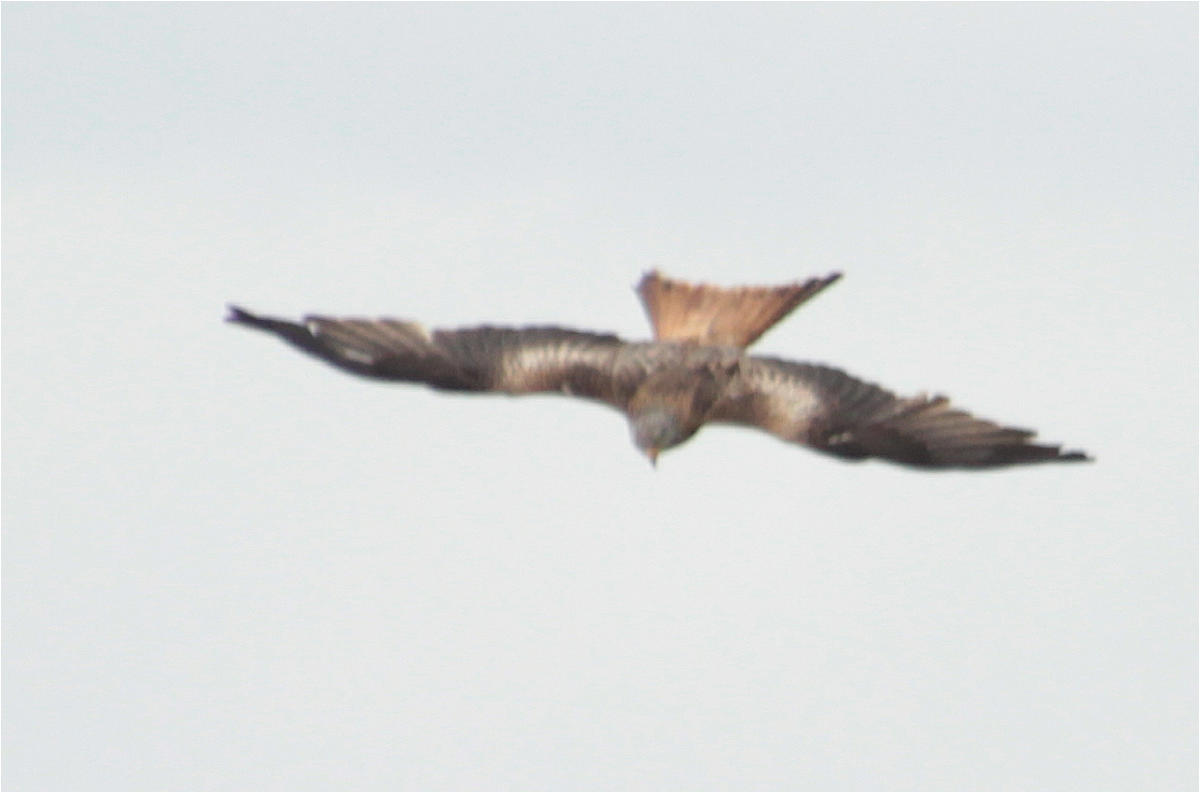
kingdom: Animalia
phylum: Chordata
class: Aves
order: Accipitriformes
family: Accipitridae
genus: Milvus
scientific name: Milvus milvus
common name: Red kite
